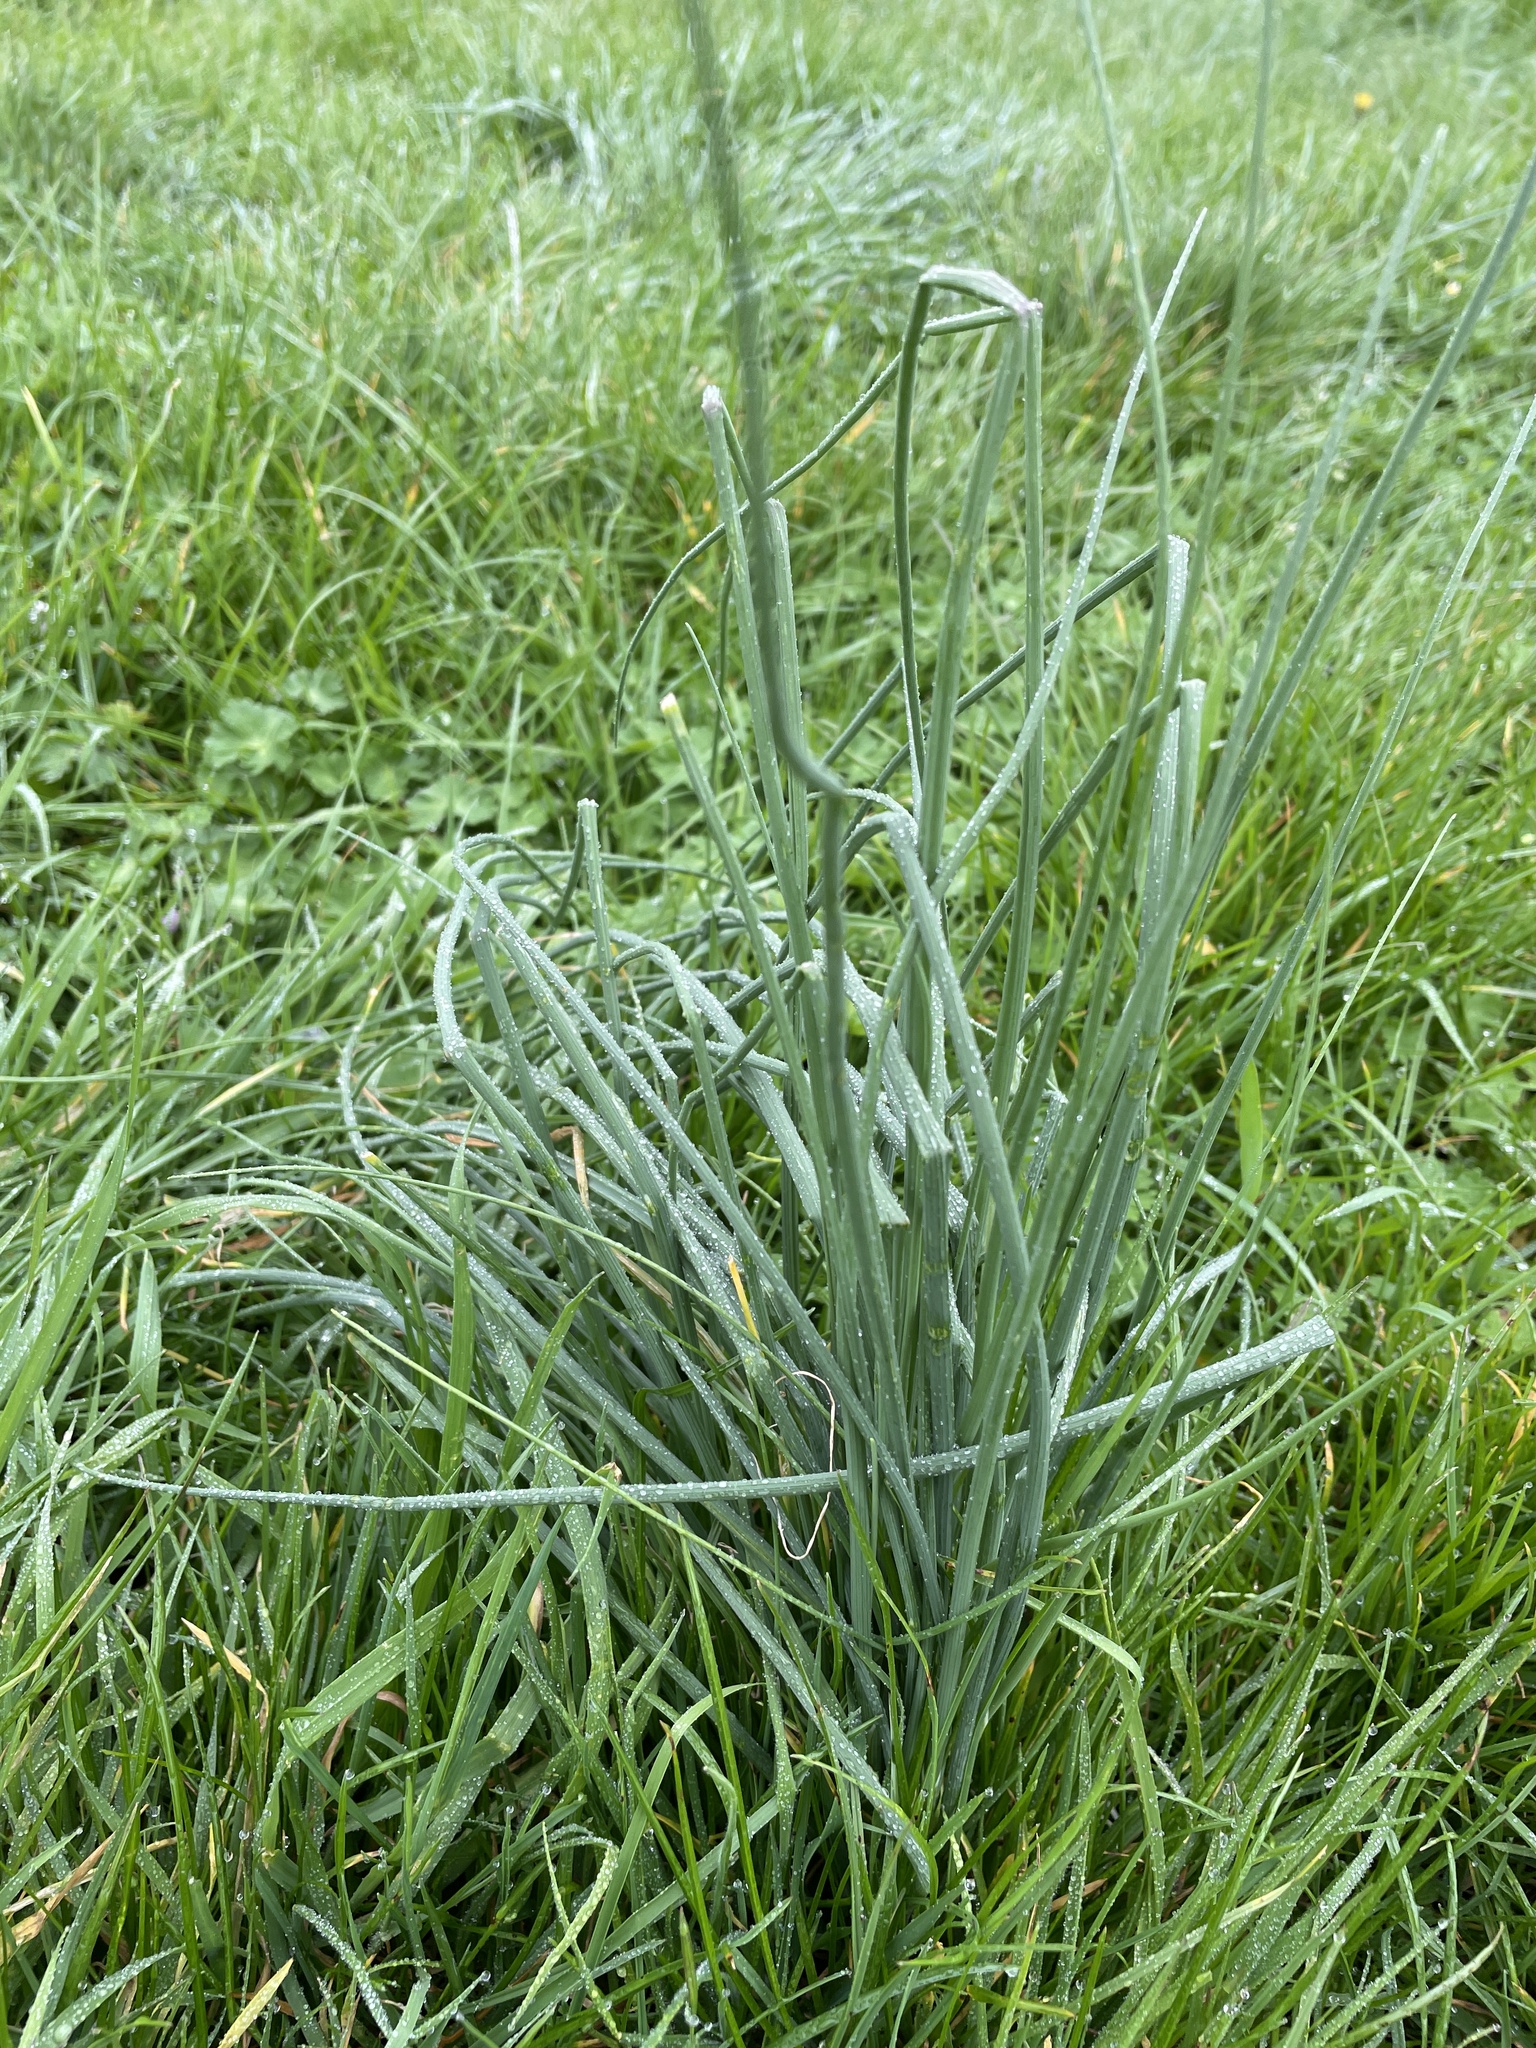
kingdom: Plantae
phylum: Tracheophyta
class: Liliopsida
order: Asparagales
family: Amaryllidaceae
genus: Allium
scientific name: Allium vineale
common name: Crow garlic
